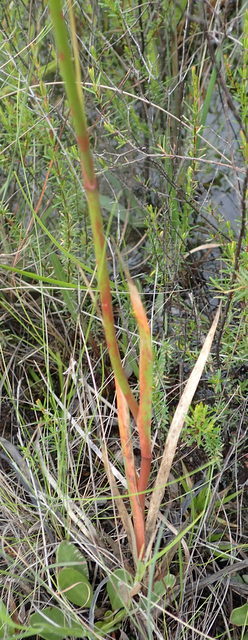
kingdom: Plantae
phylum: Tracheophyta
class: Liliopsida
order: Dioscoreales
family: Nartheciaceae
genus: Lophiola
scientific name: Lophiola aurea
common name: Golden-crest
